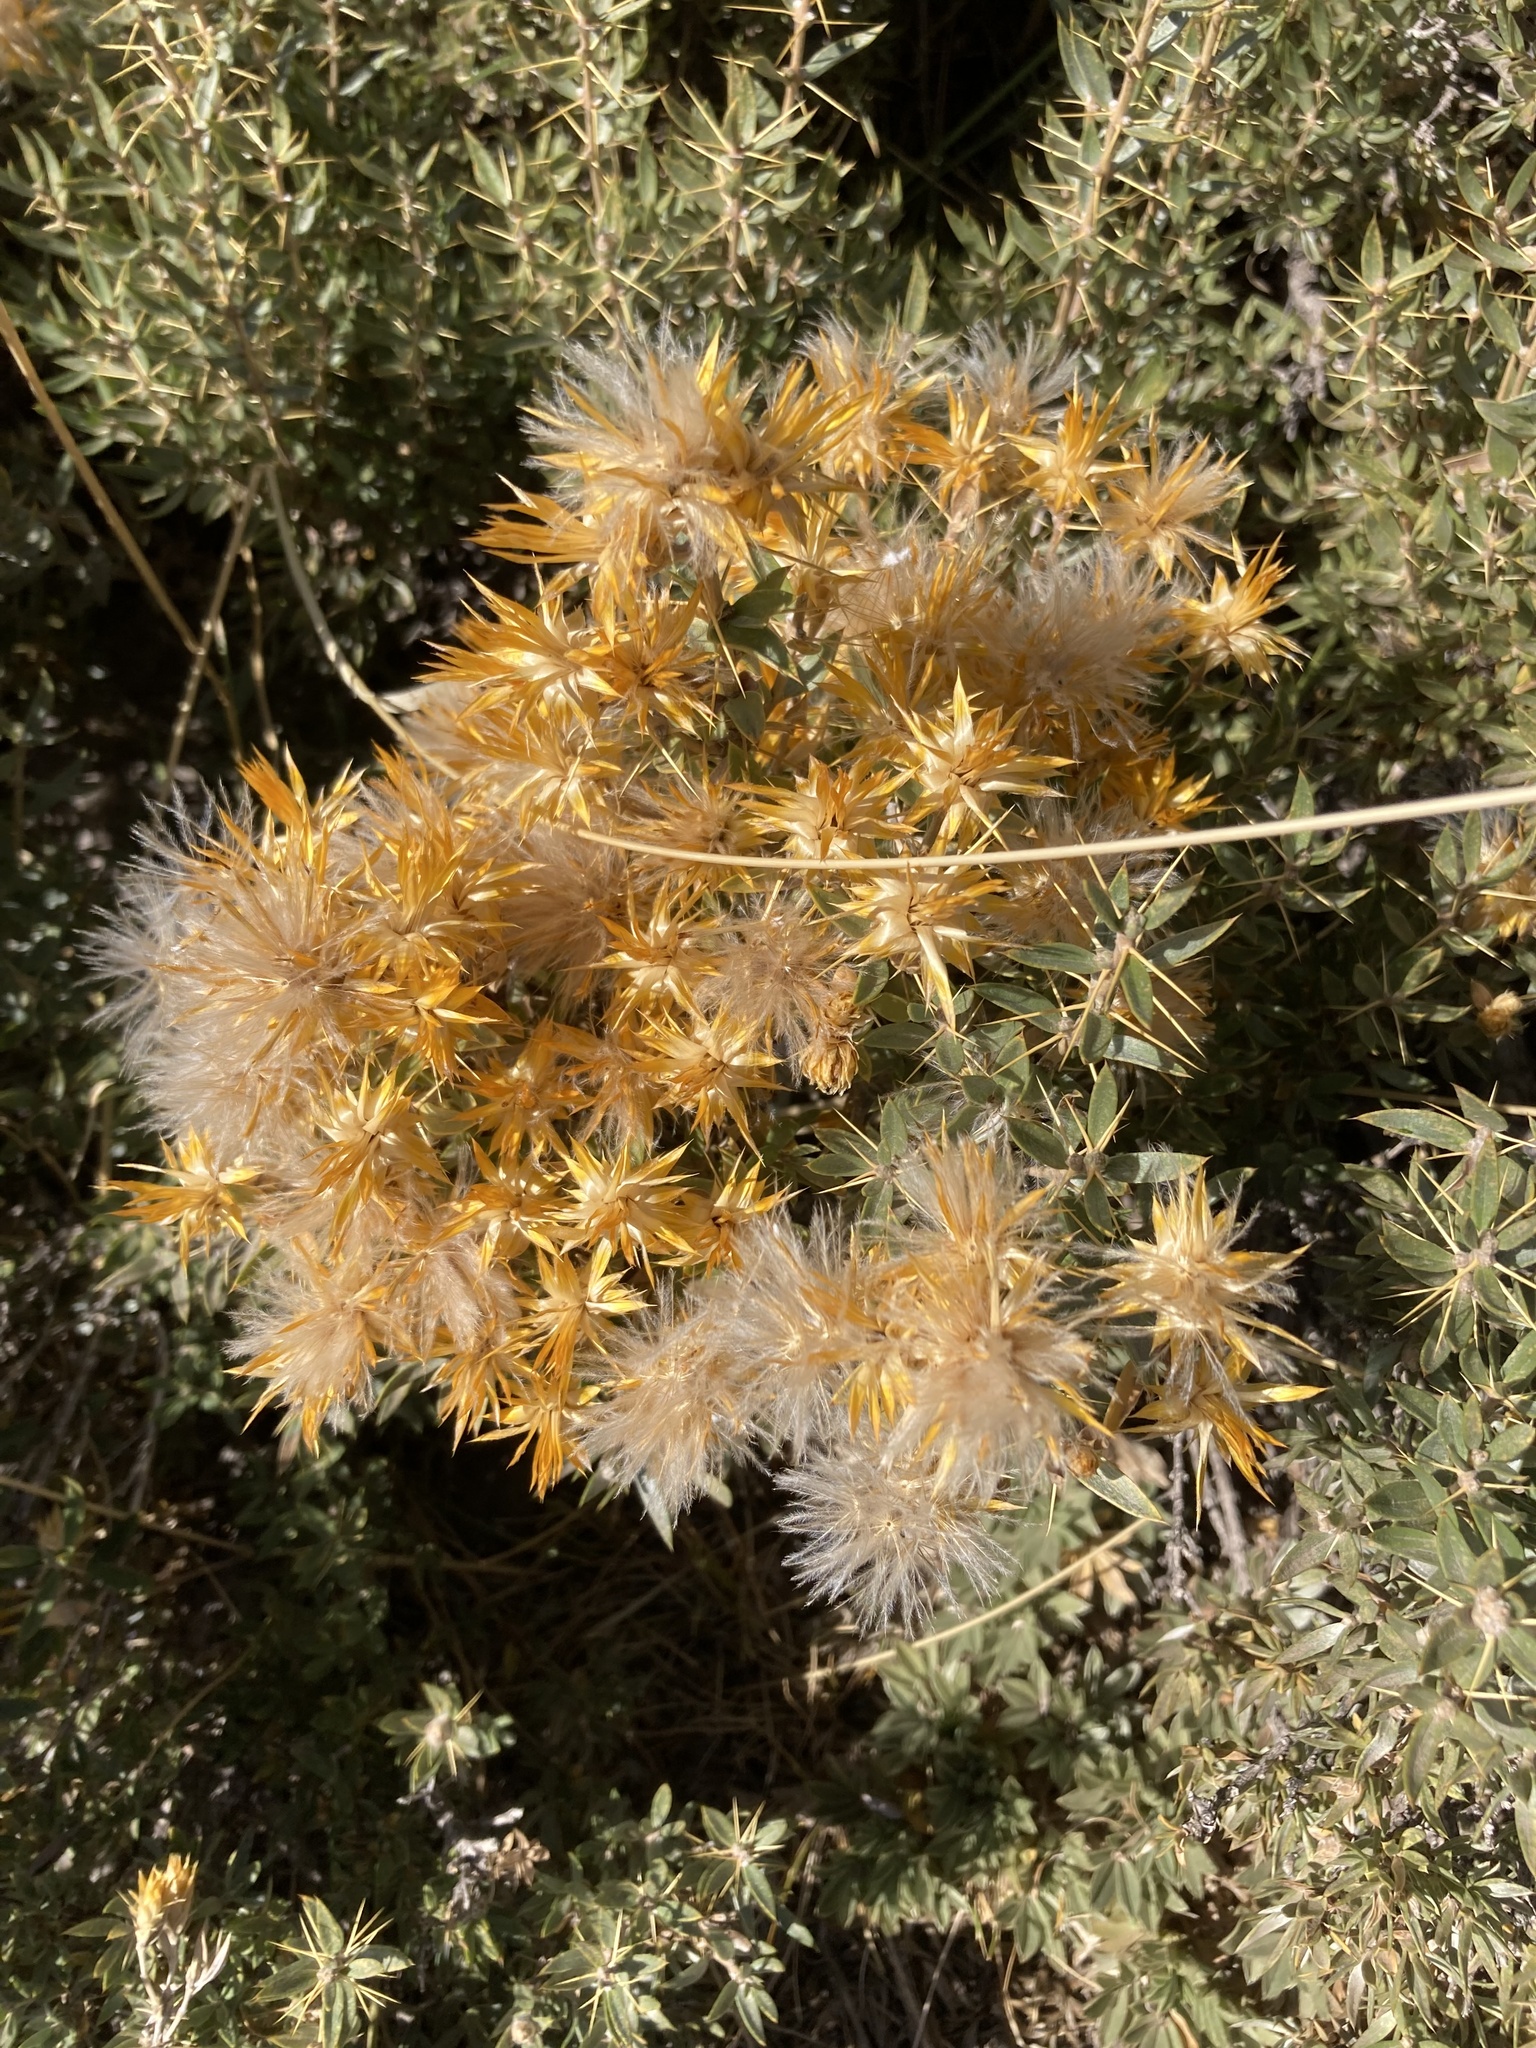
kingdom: Plantae
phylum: Tracheophyta
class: Magnoliopsida
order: Asterales
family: Asteraceae
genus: Chuquiraga
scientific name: Chuquiraga oppositifolia
